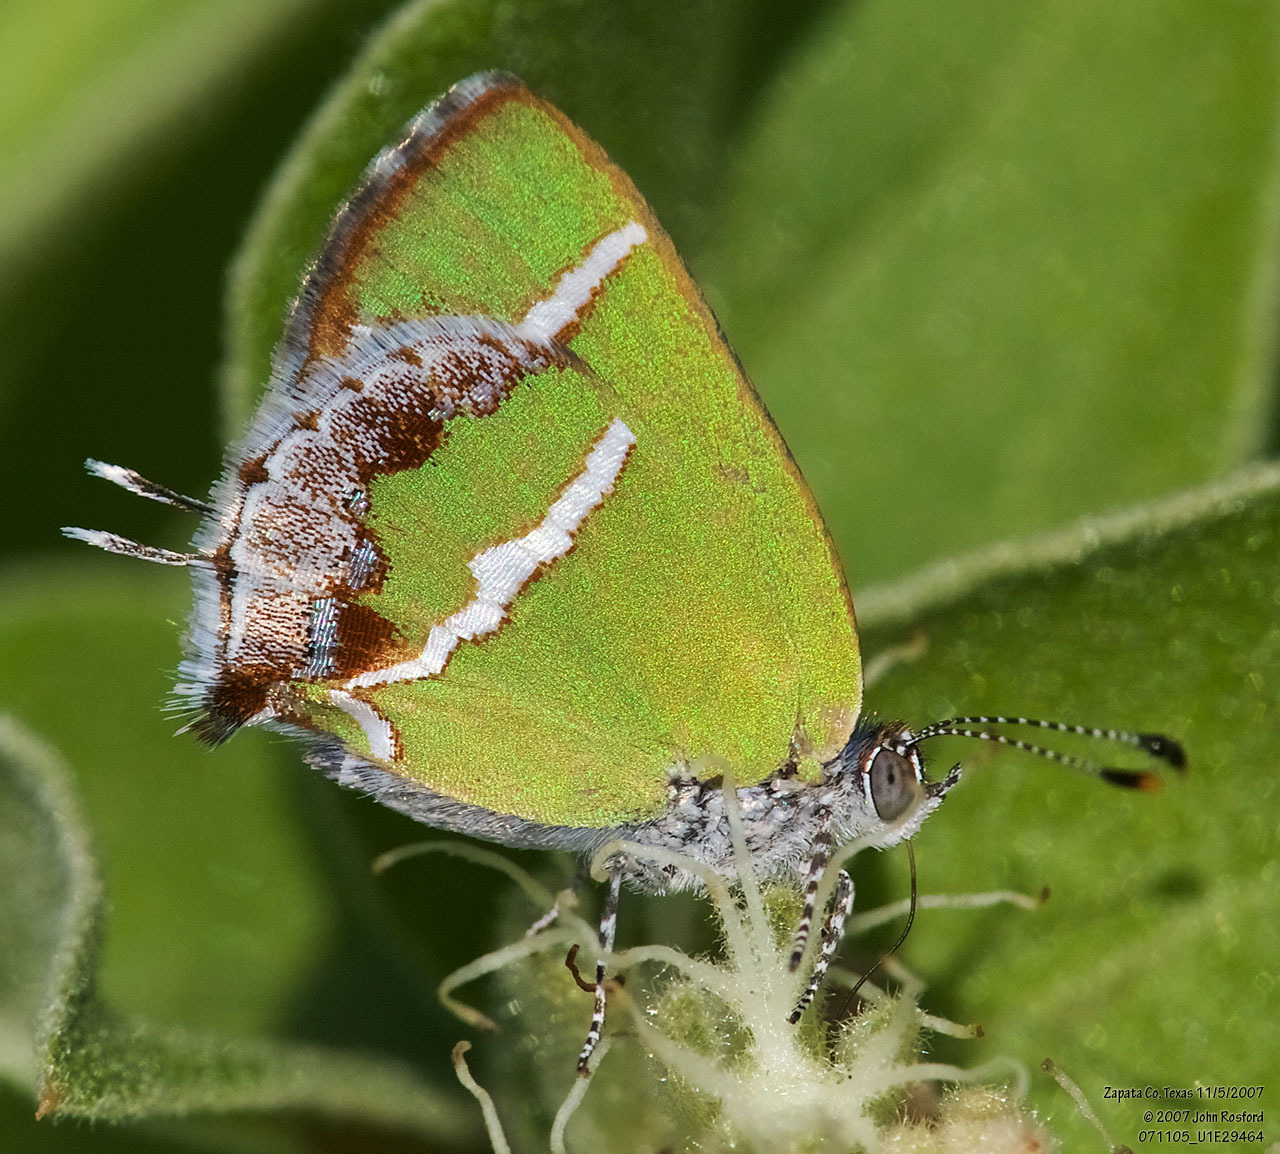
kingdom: Animalia
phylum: Arthropoda
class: Insecta
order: Lepidoptera
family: Lycaenidae
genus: Chlorostrymon
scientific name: Chlorostrymon simaethis
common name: Silver-banded hairstreak
